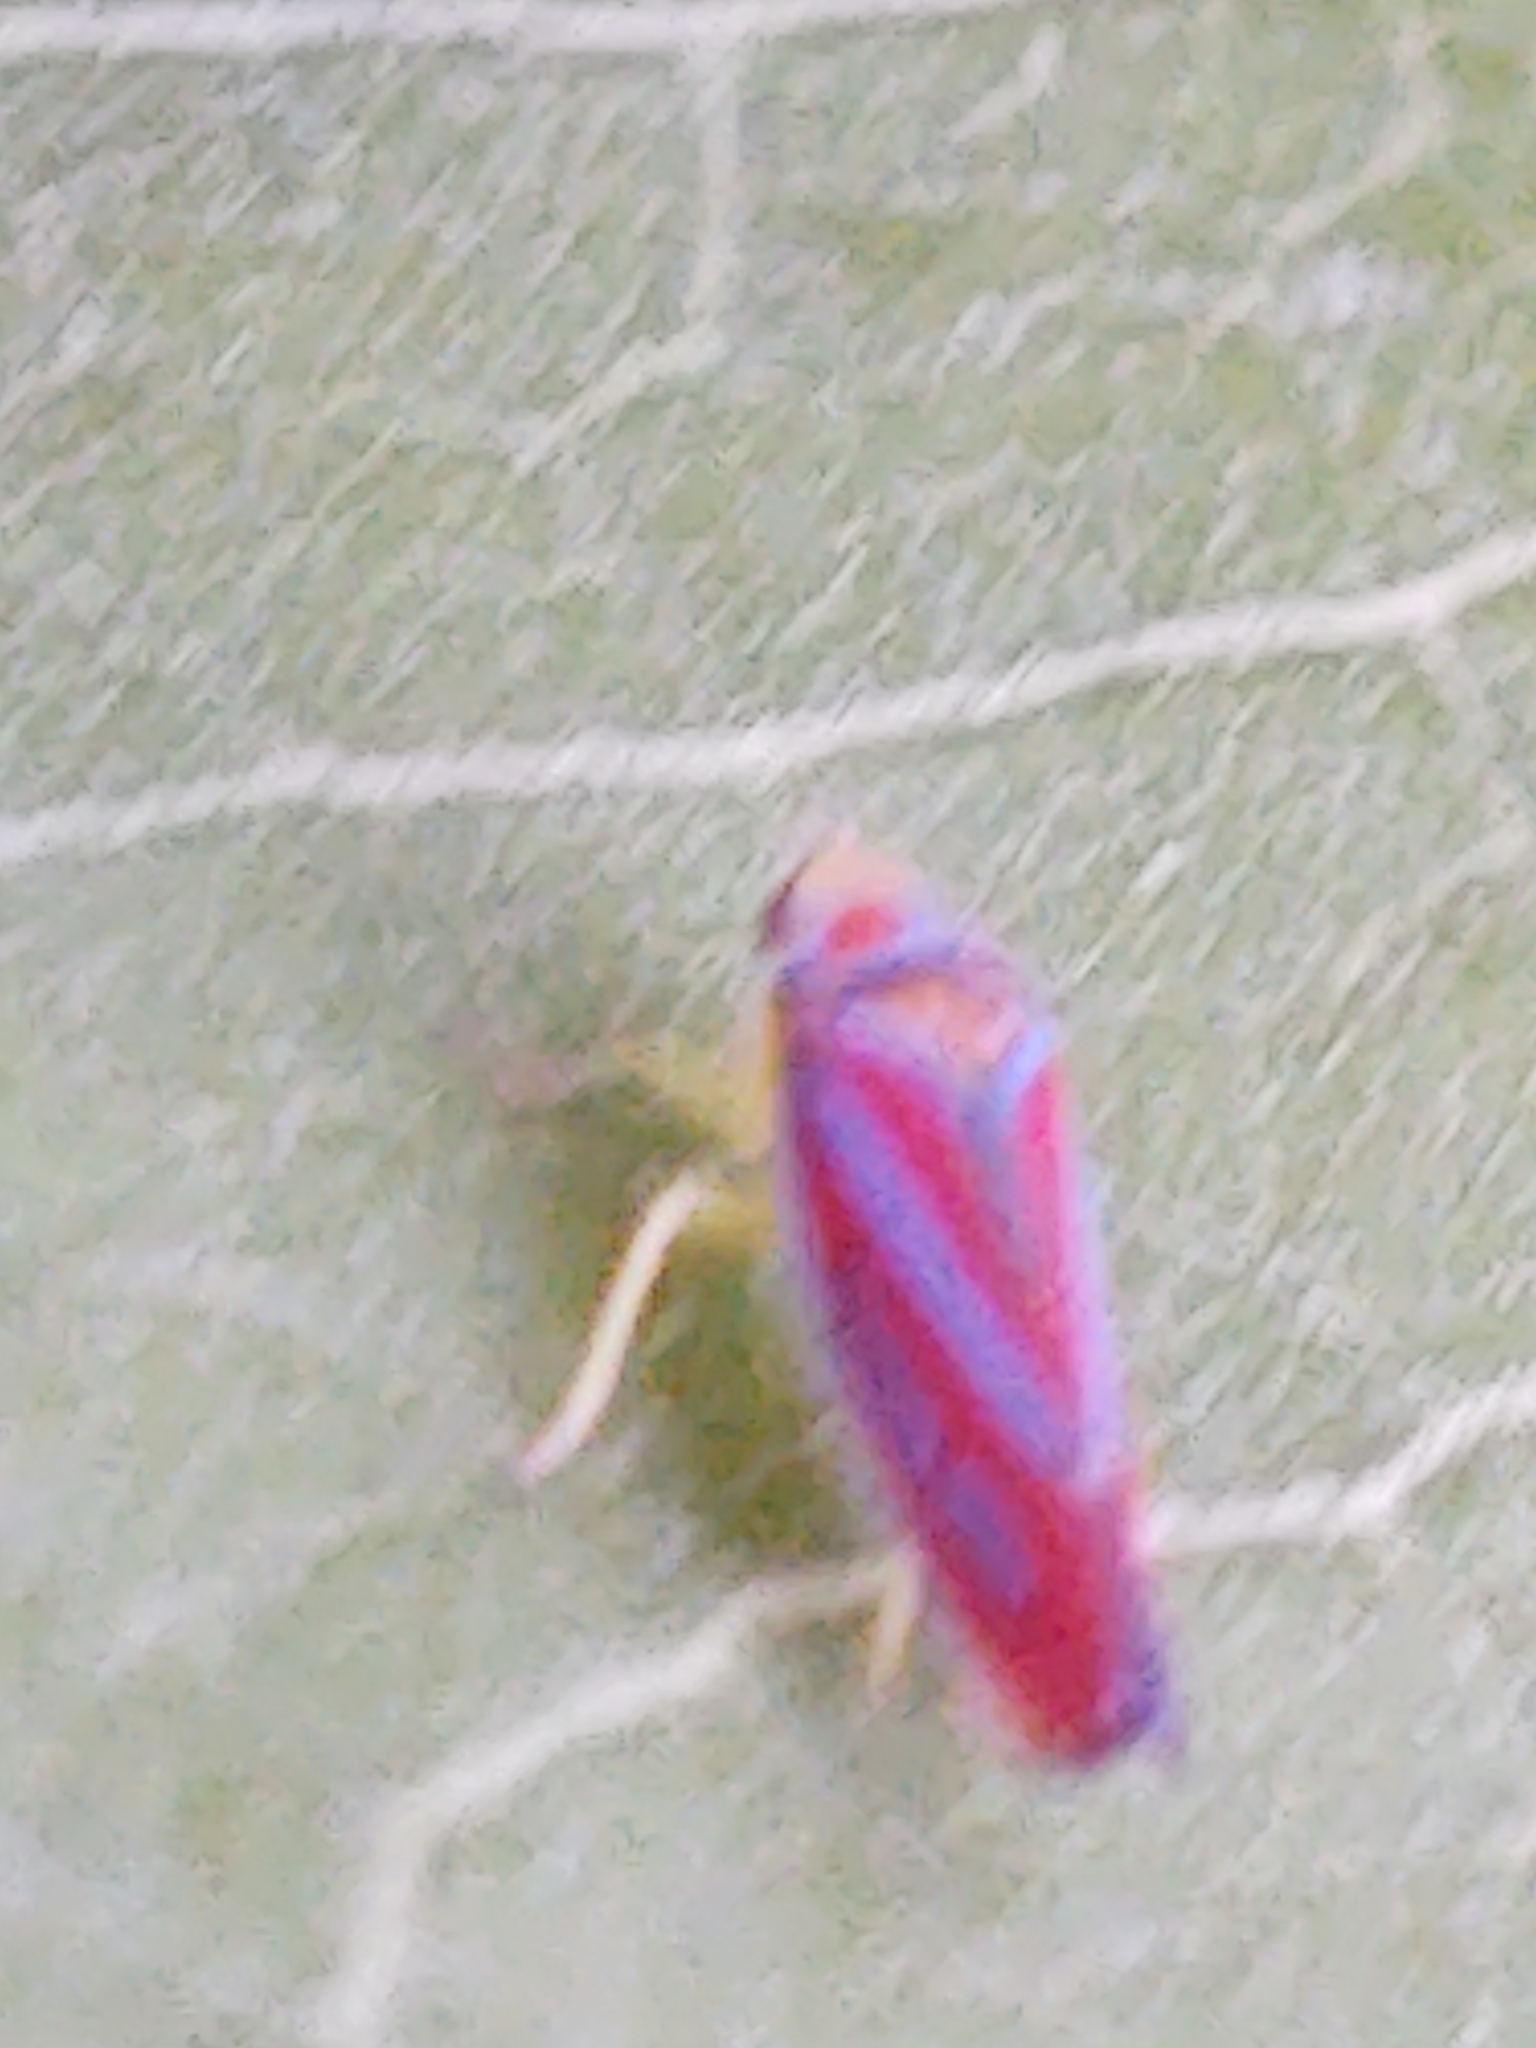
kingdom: Animalia
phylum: Arthropoda
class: Insecta
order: Hemiptera
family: Cicadellidae
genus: Graphocephala
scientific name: Graphocephala coccinea
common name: Candy-striped leafhopper
